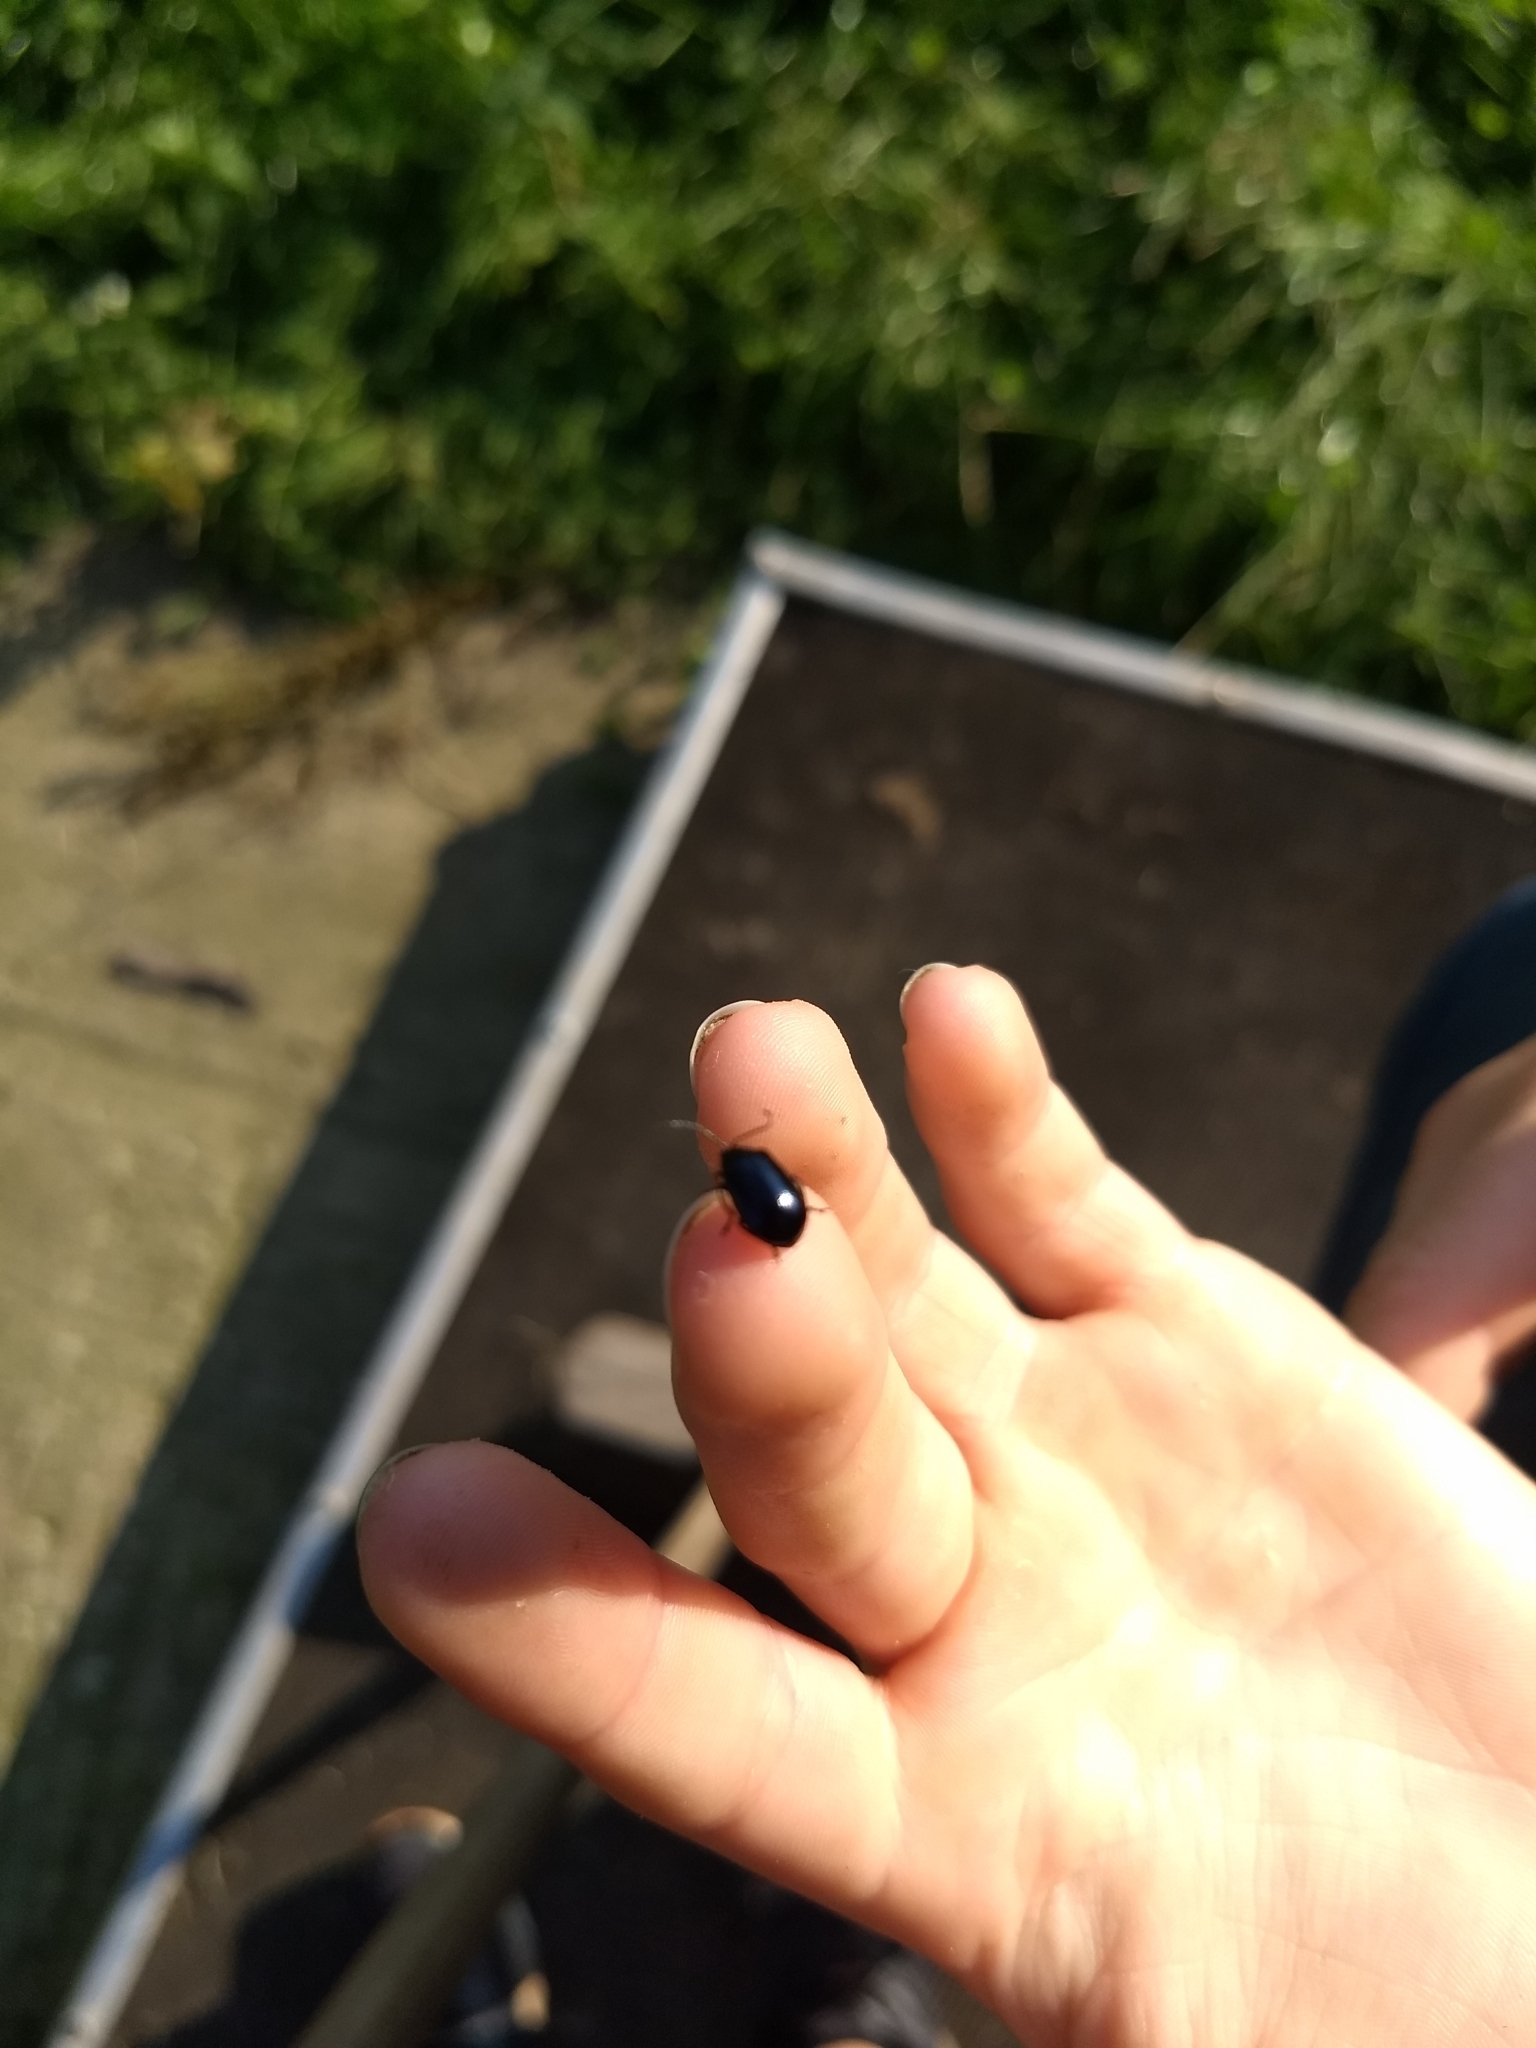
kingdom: Animalia
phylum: Arthropoda
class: Insecta
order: Coleoptera
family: Chrysomelidae
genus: Agelastica
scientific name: Agelastica alni
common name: Alder leaf beetle
